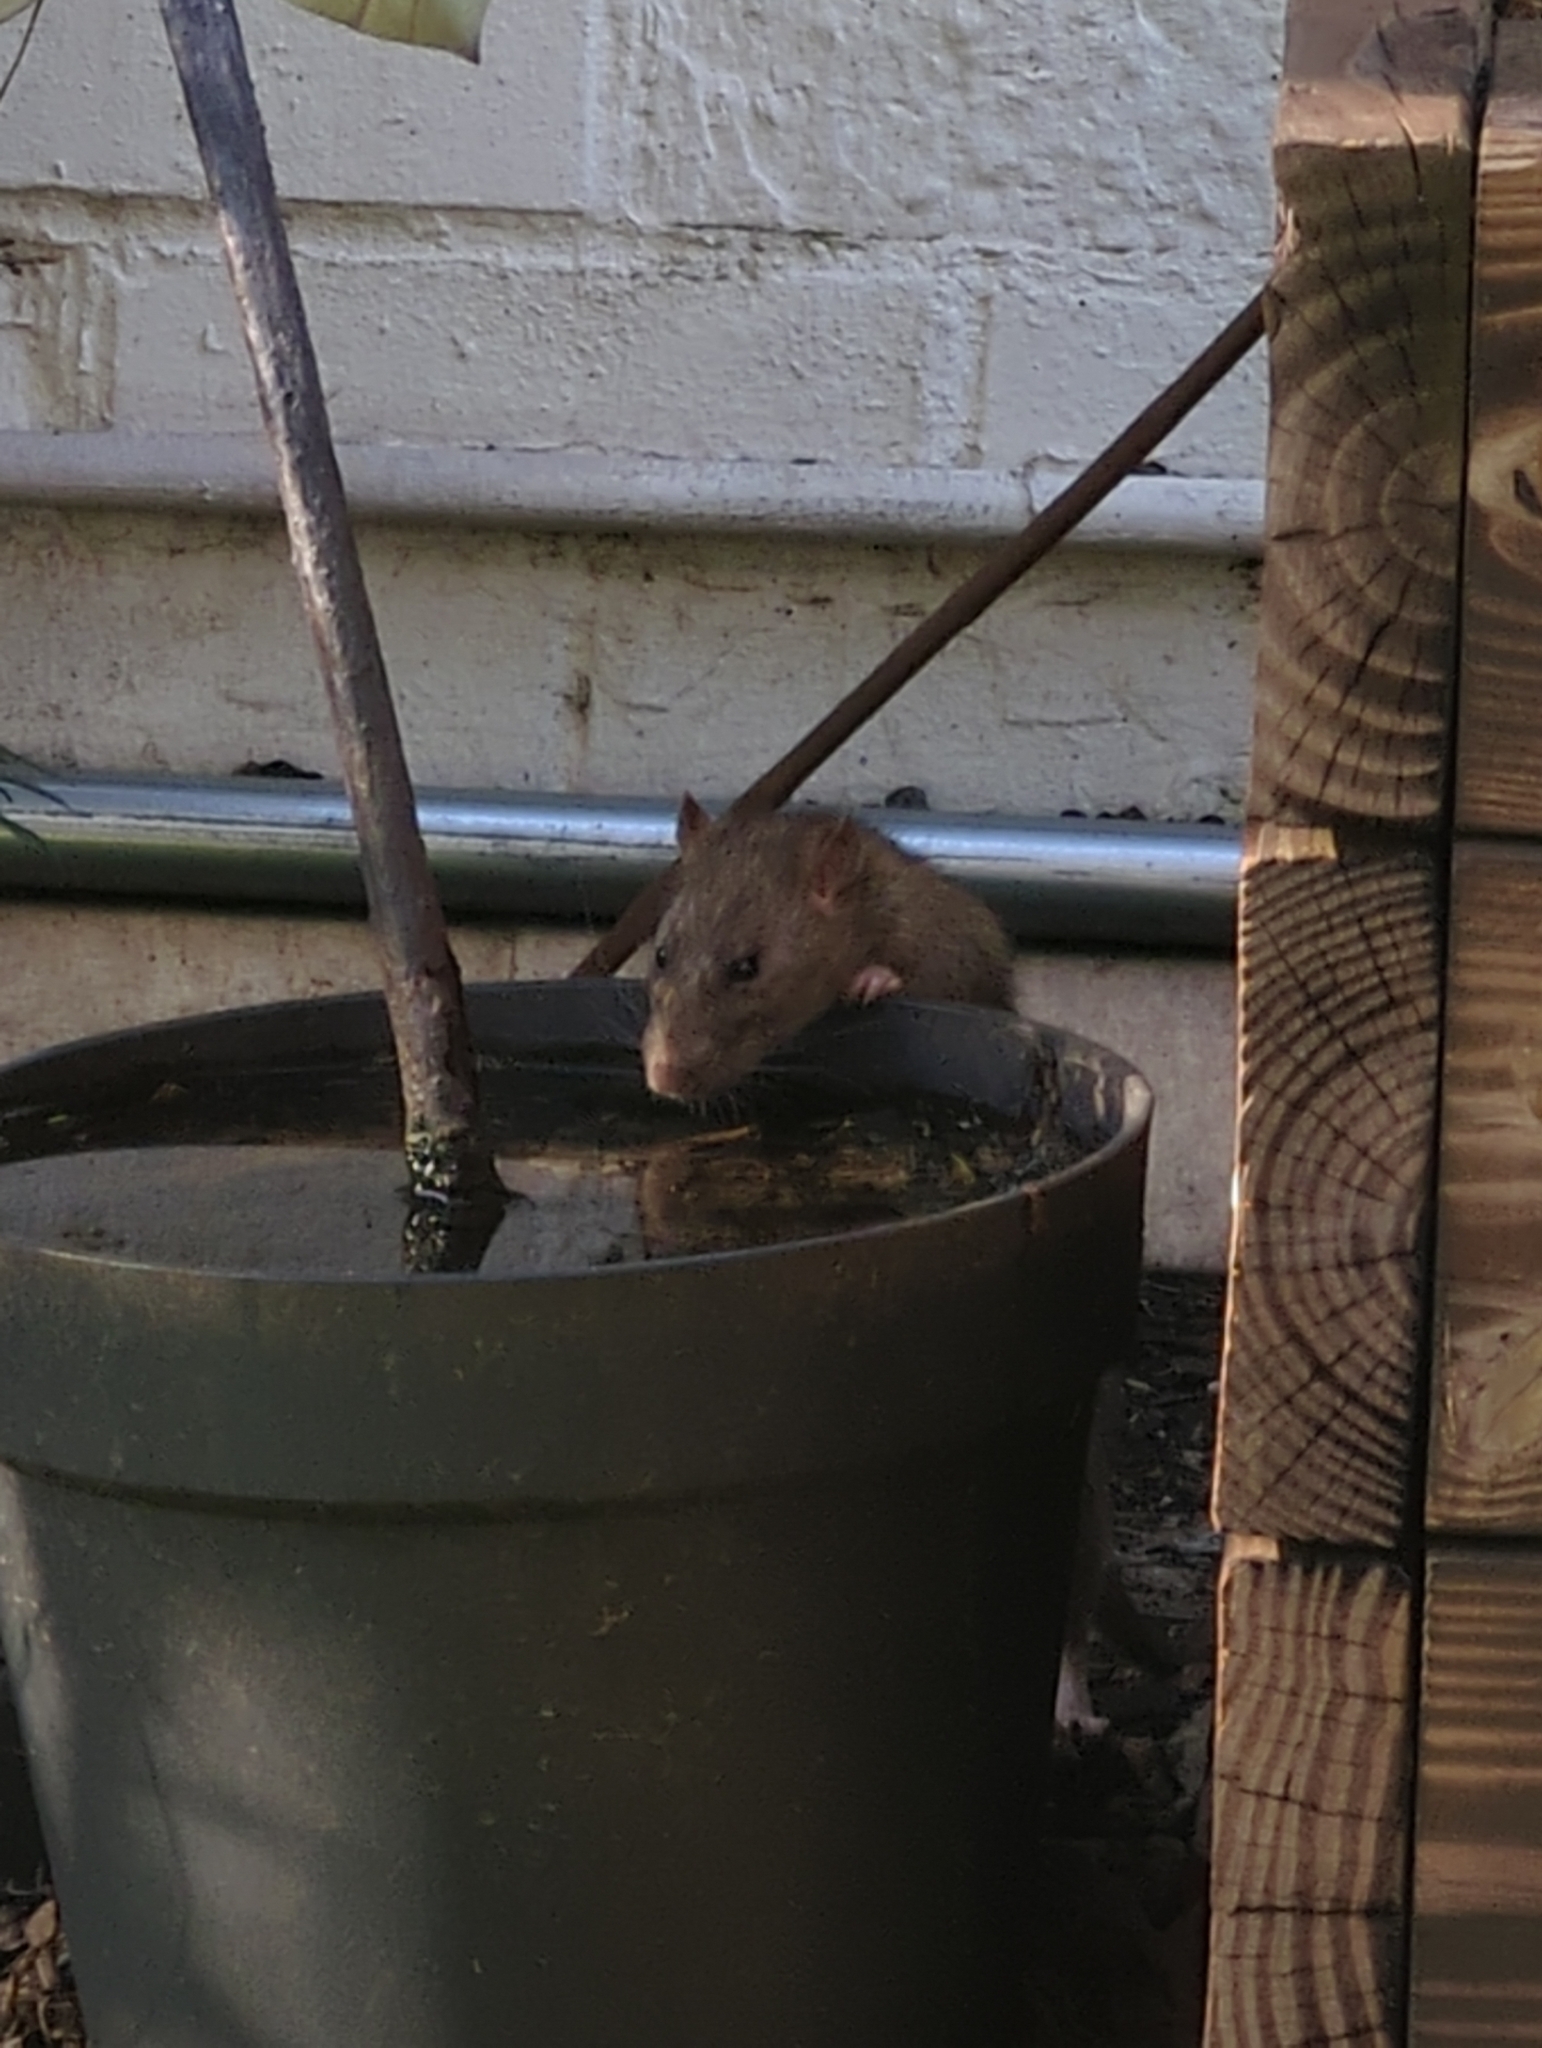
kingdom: Animalia
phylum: Chordata
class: Mammalia
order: Rodentia
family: Muridae
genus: Rattus
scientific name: Rattus norvegicus
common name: Brown rat
